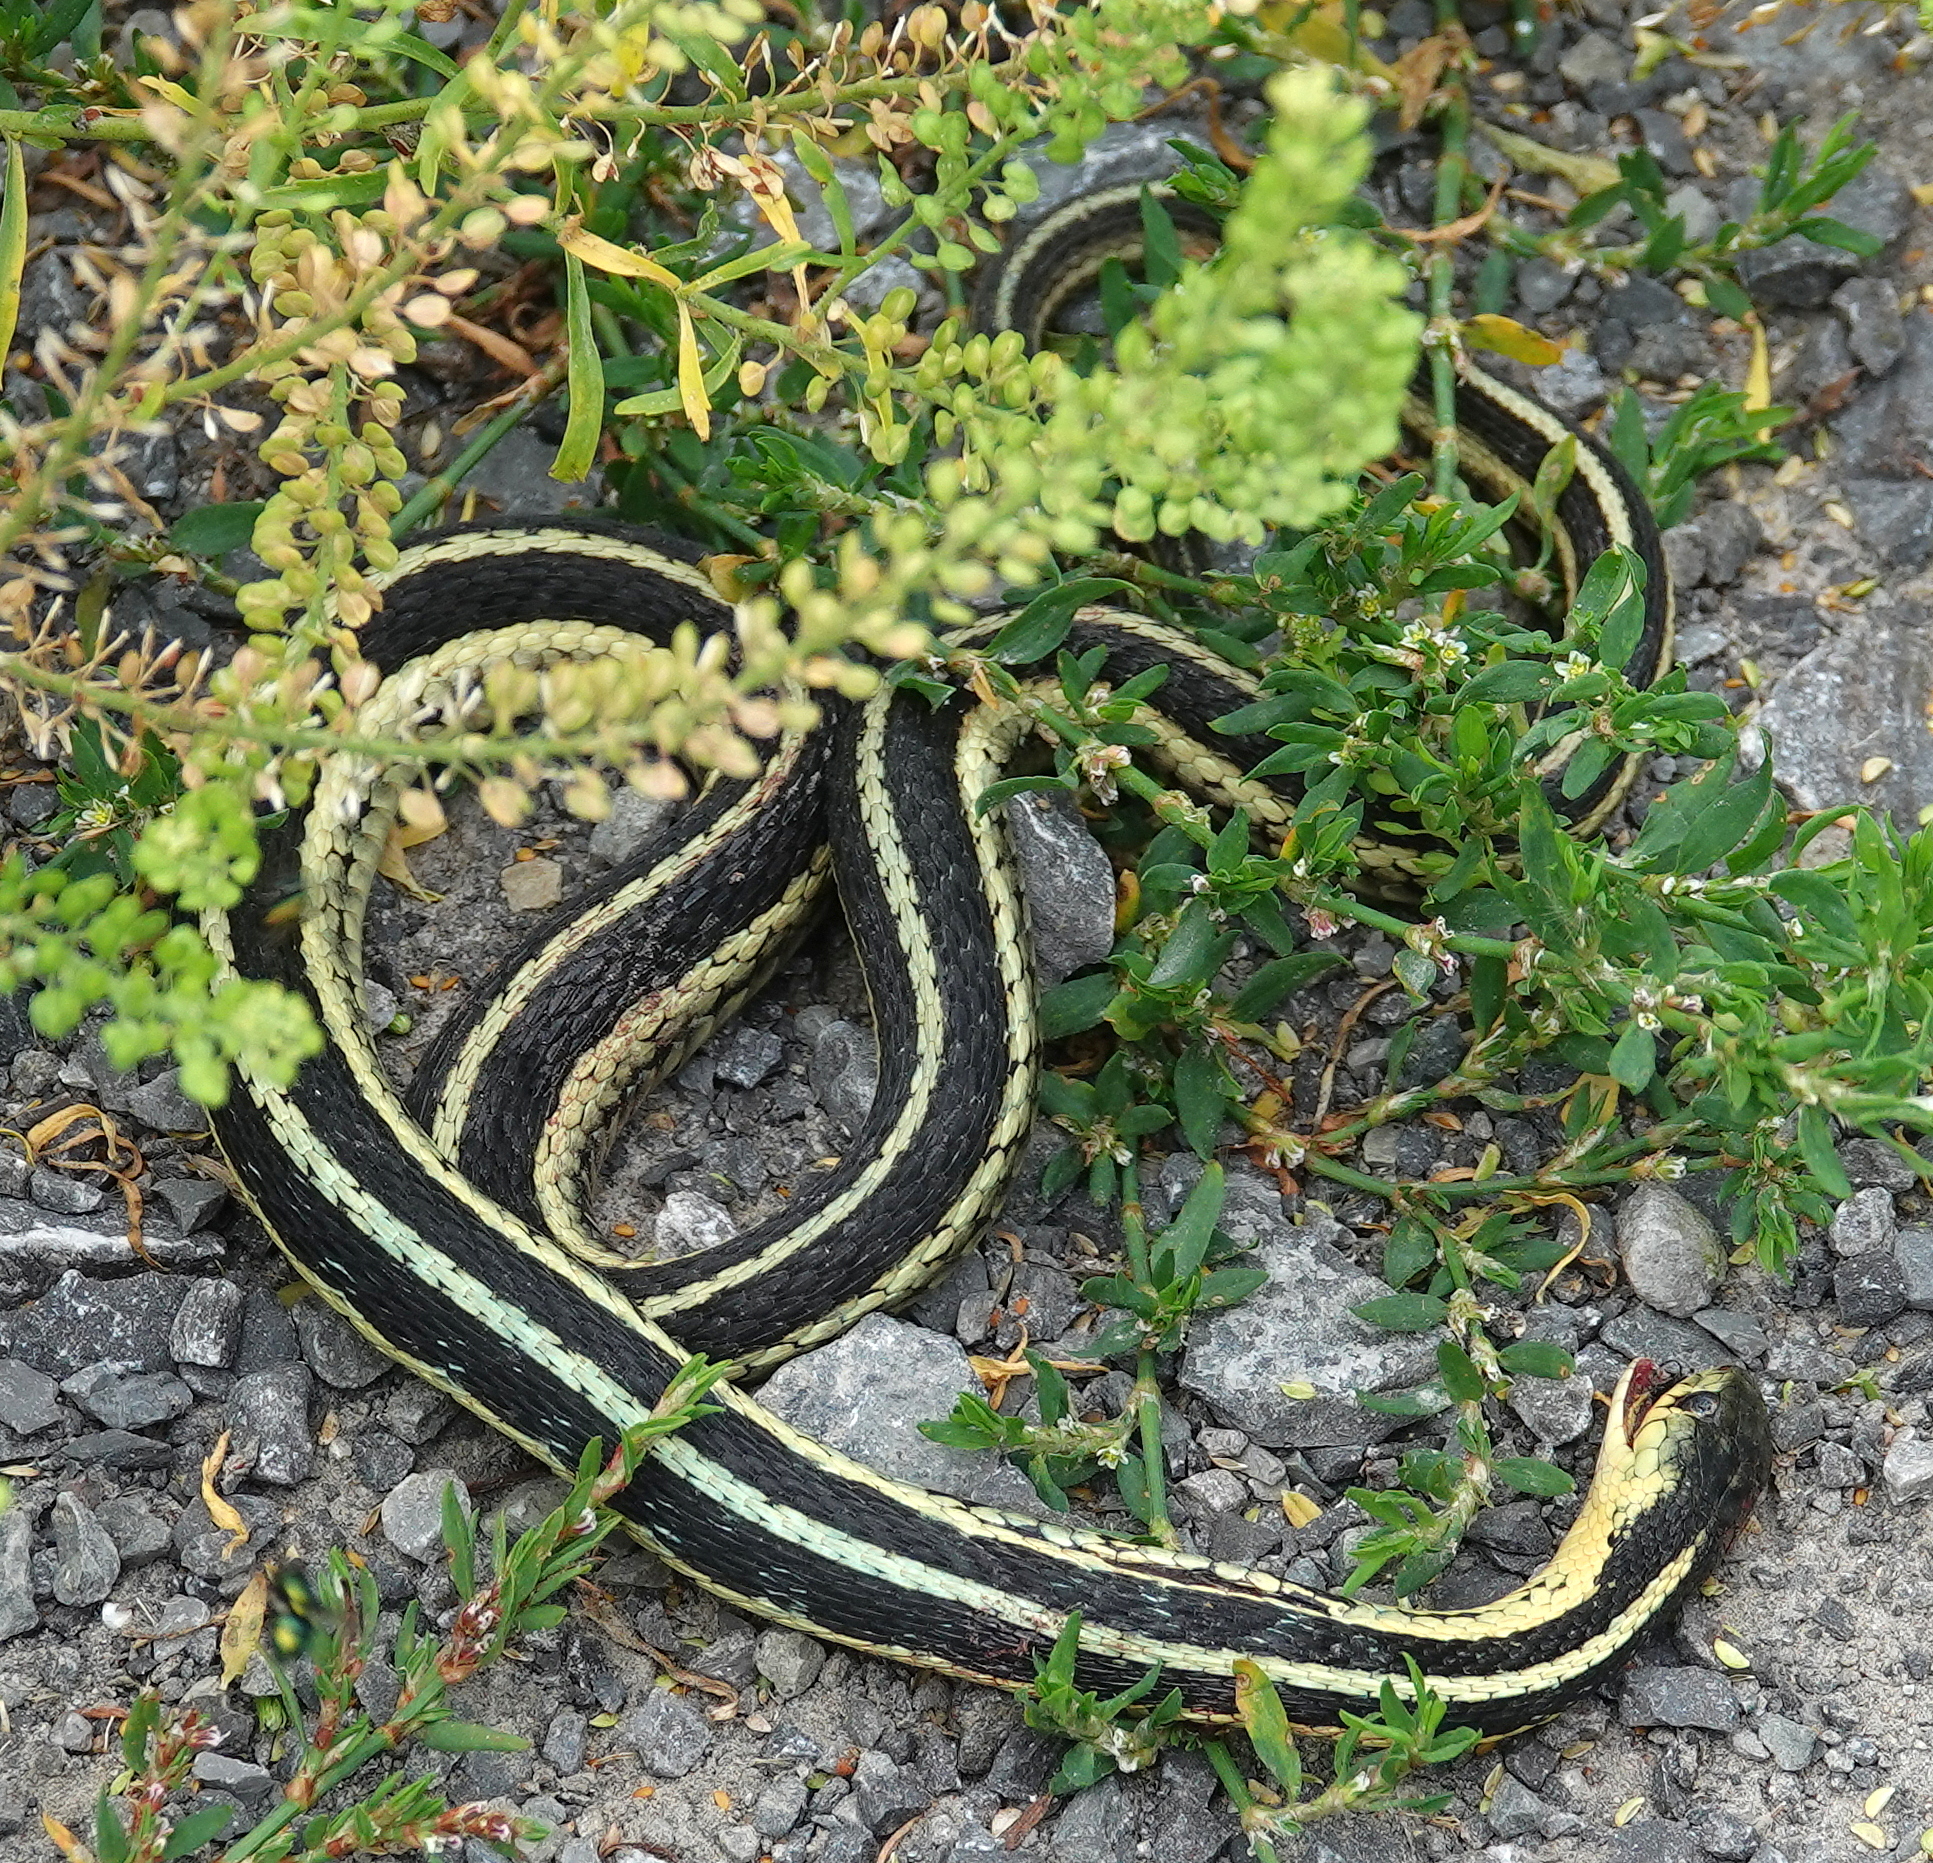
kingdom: Animalia
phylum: Chordata
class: Squamata
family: Colubridae
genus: Thamnophis
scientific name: Thamnophis sirtalis
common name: Common garter snake
